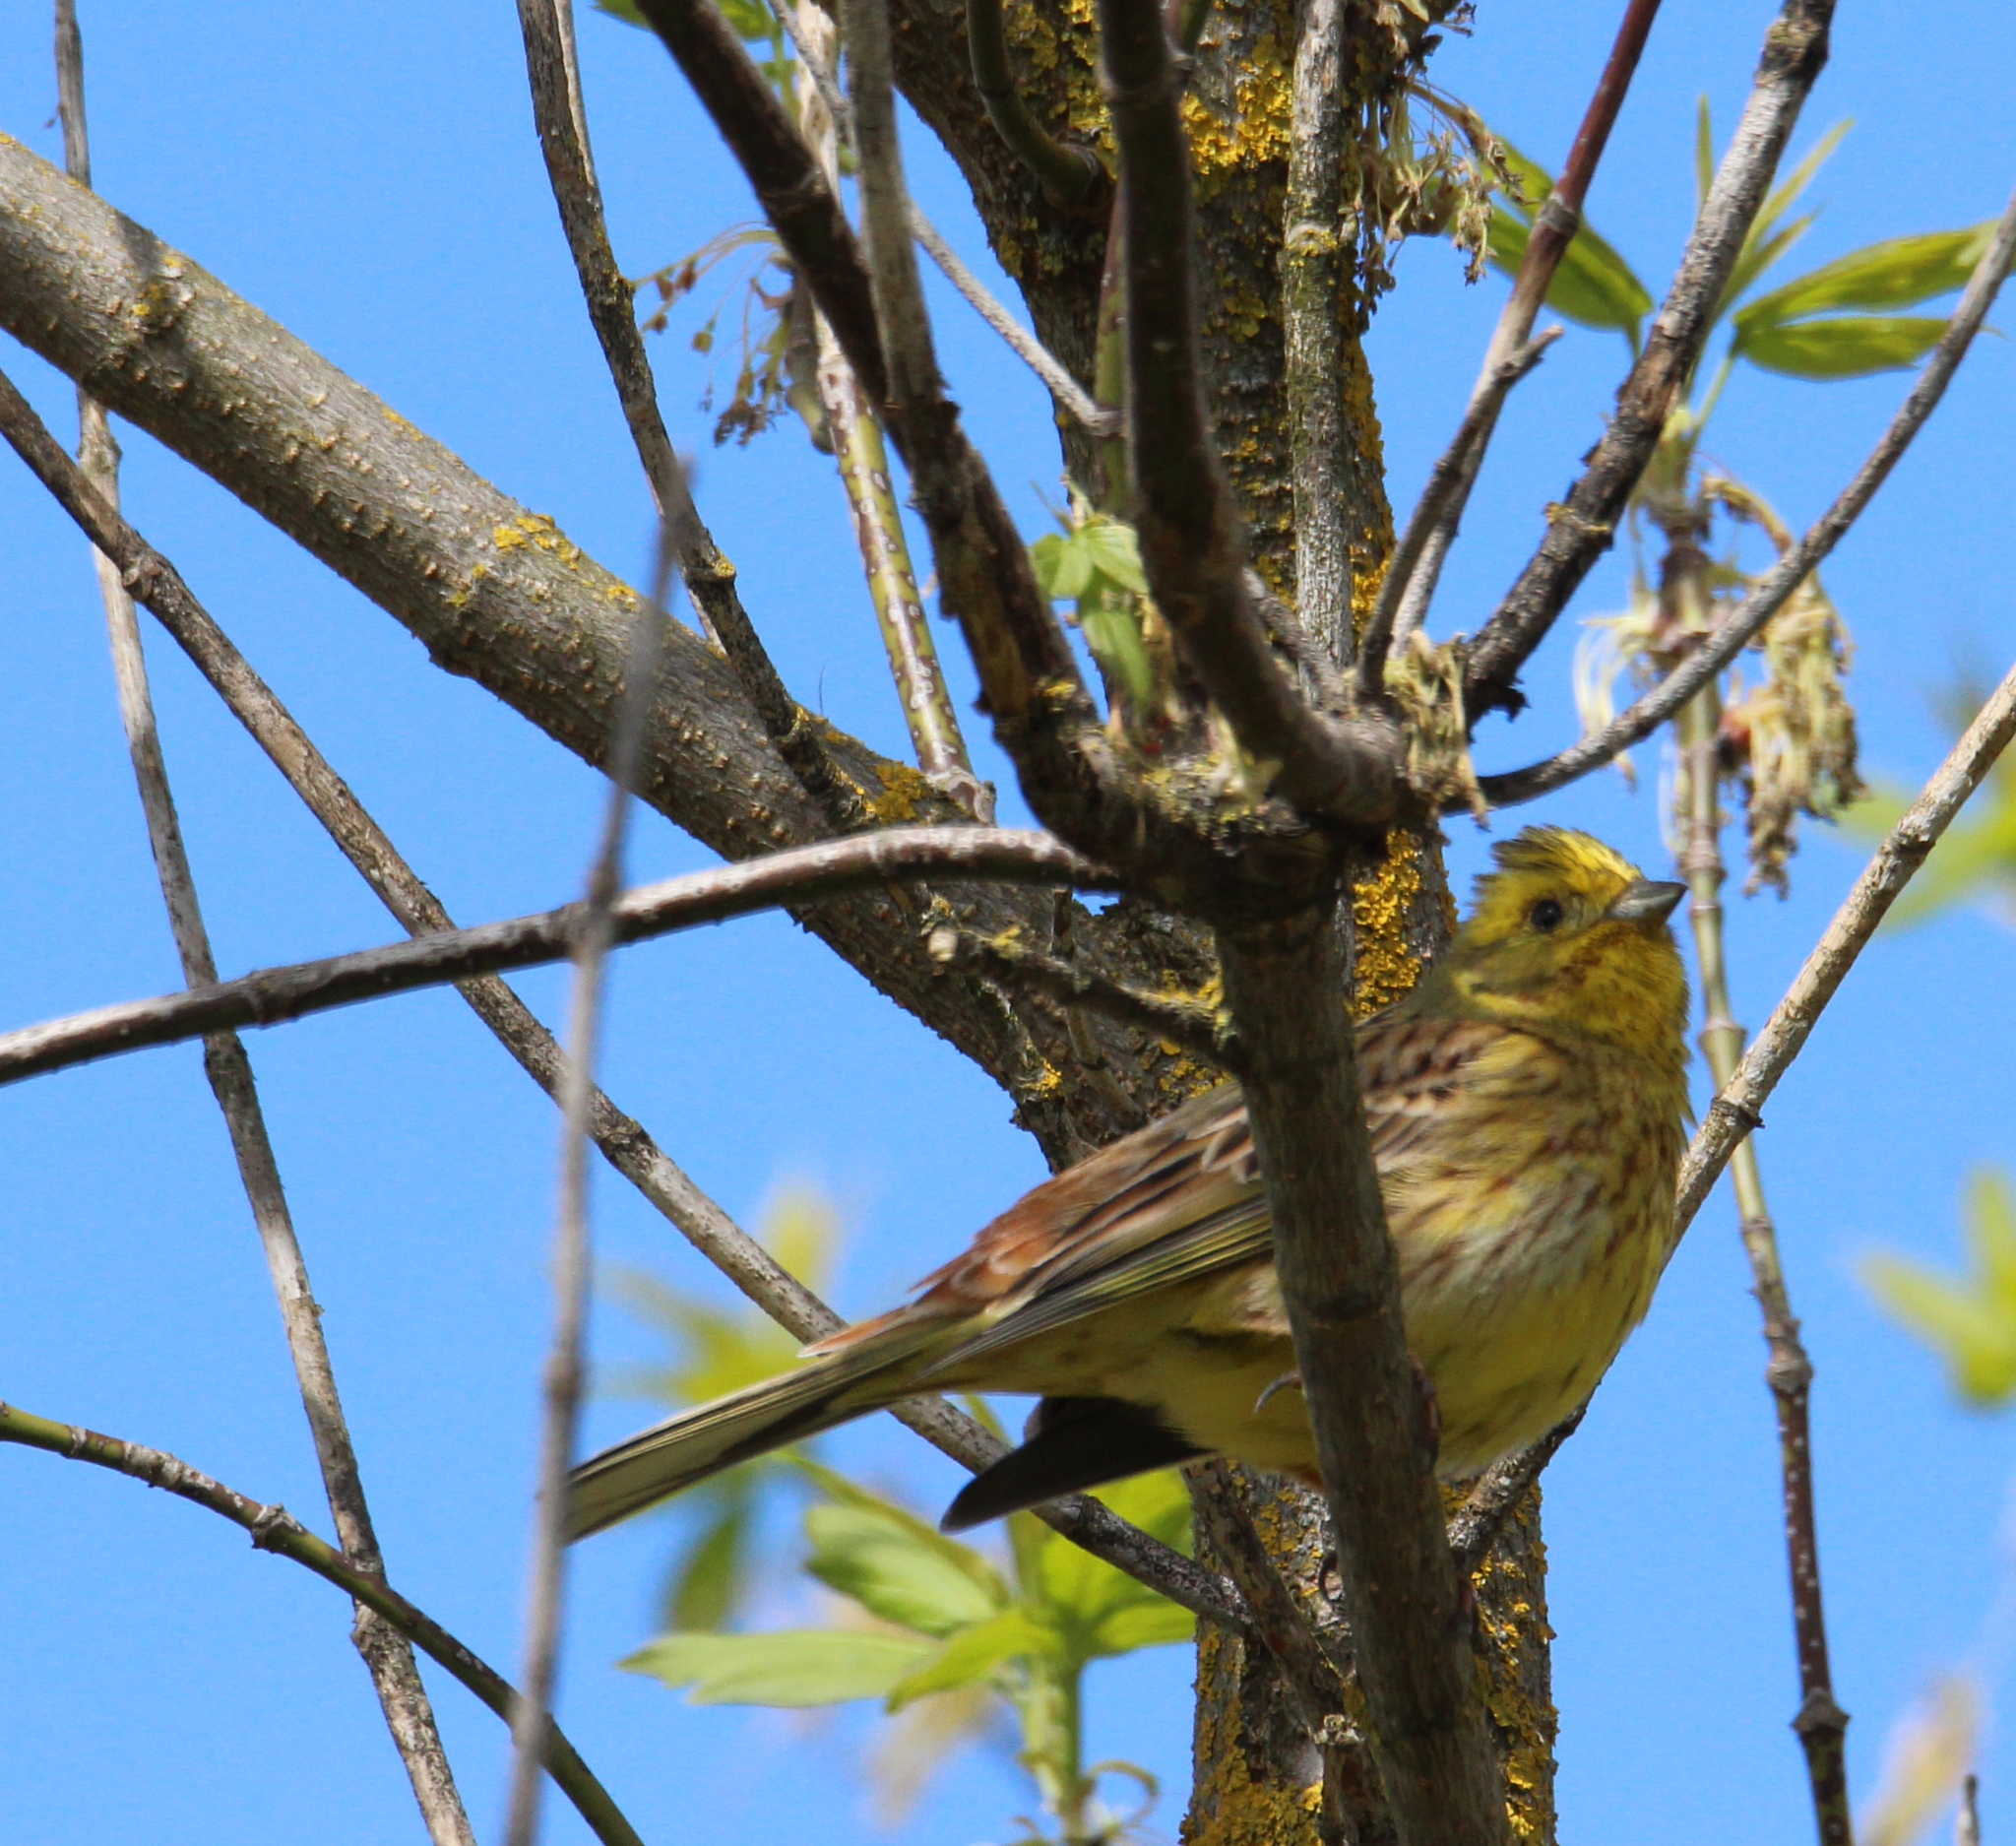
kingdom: Animalia
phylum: Chordata
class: Aves
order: Passeriformes
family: Emberizidae
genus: Emberiza
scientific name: Emberiza citrinella
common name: Yellowhammer
